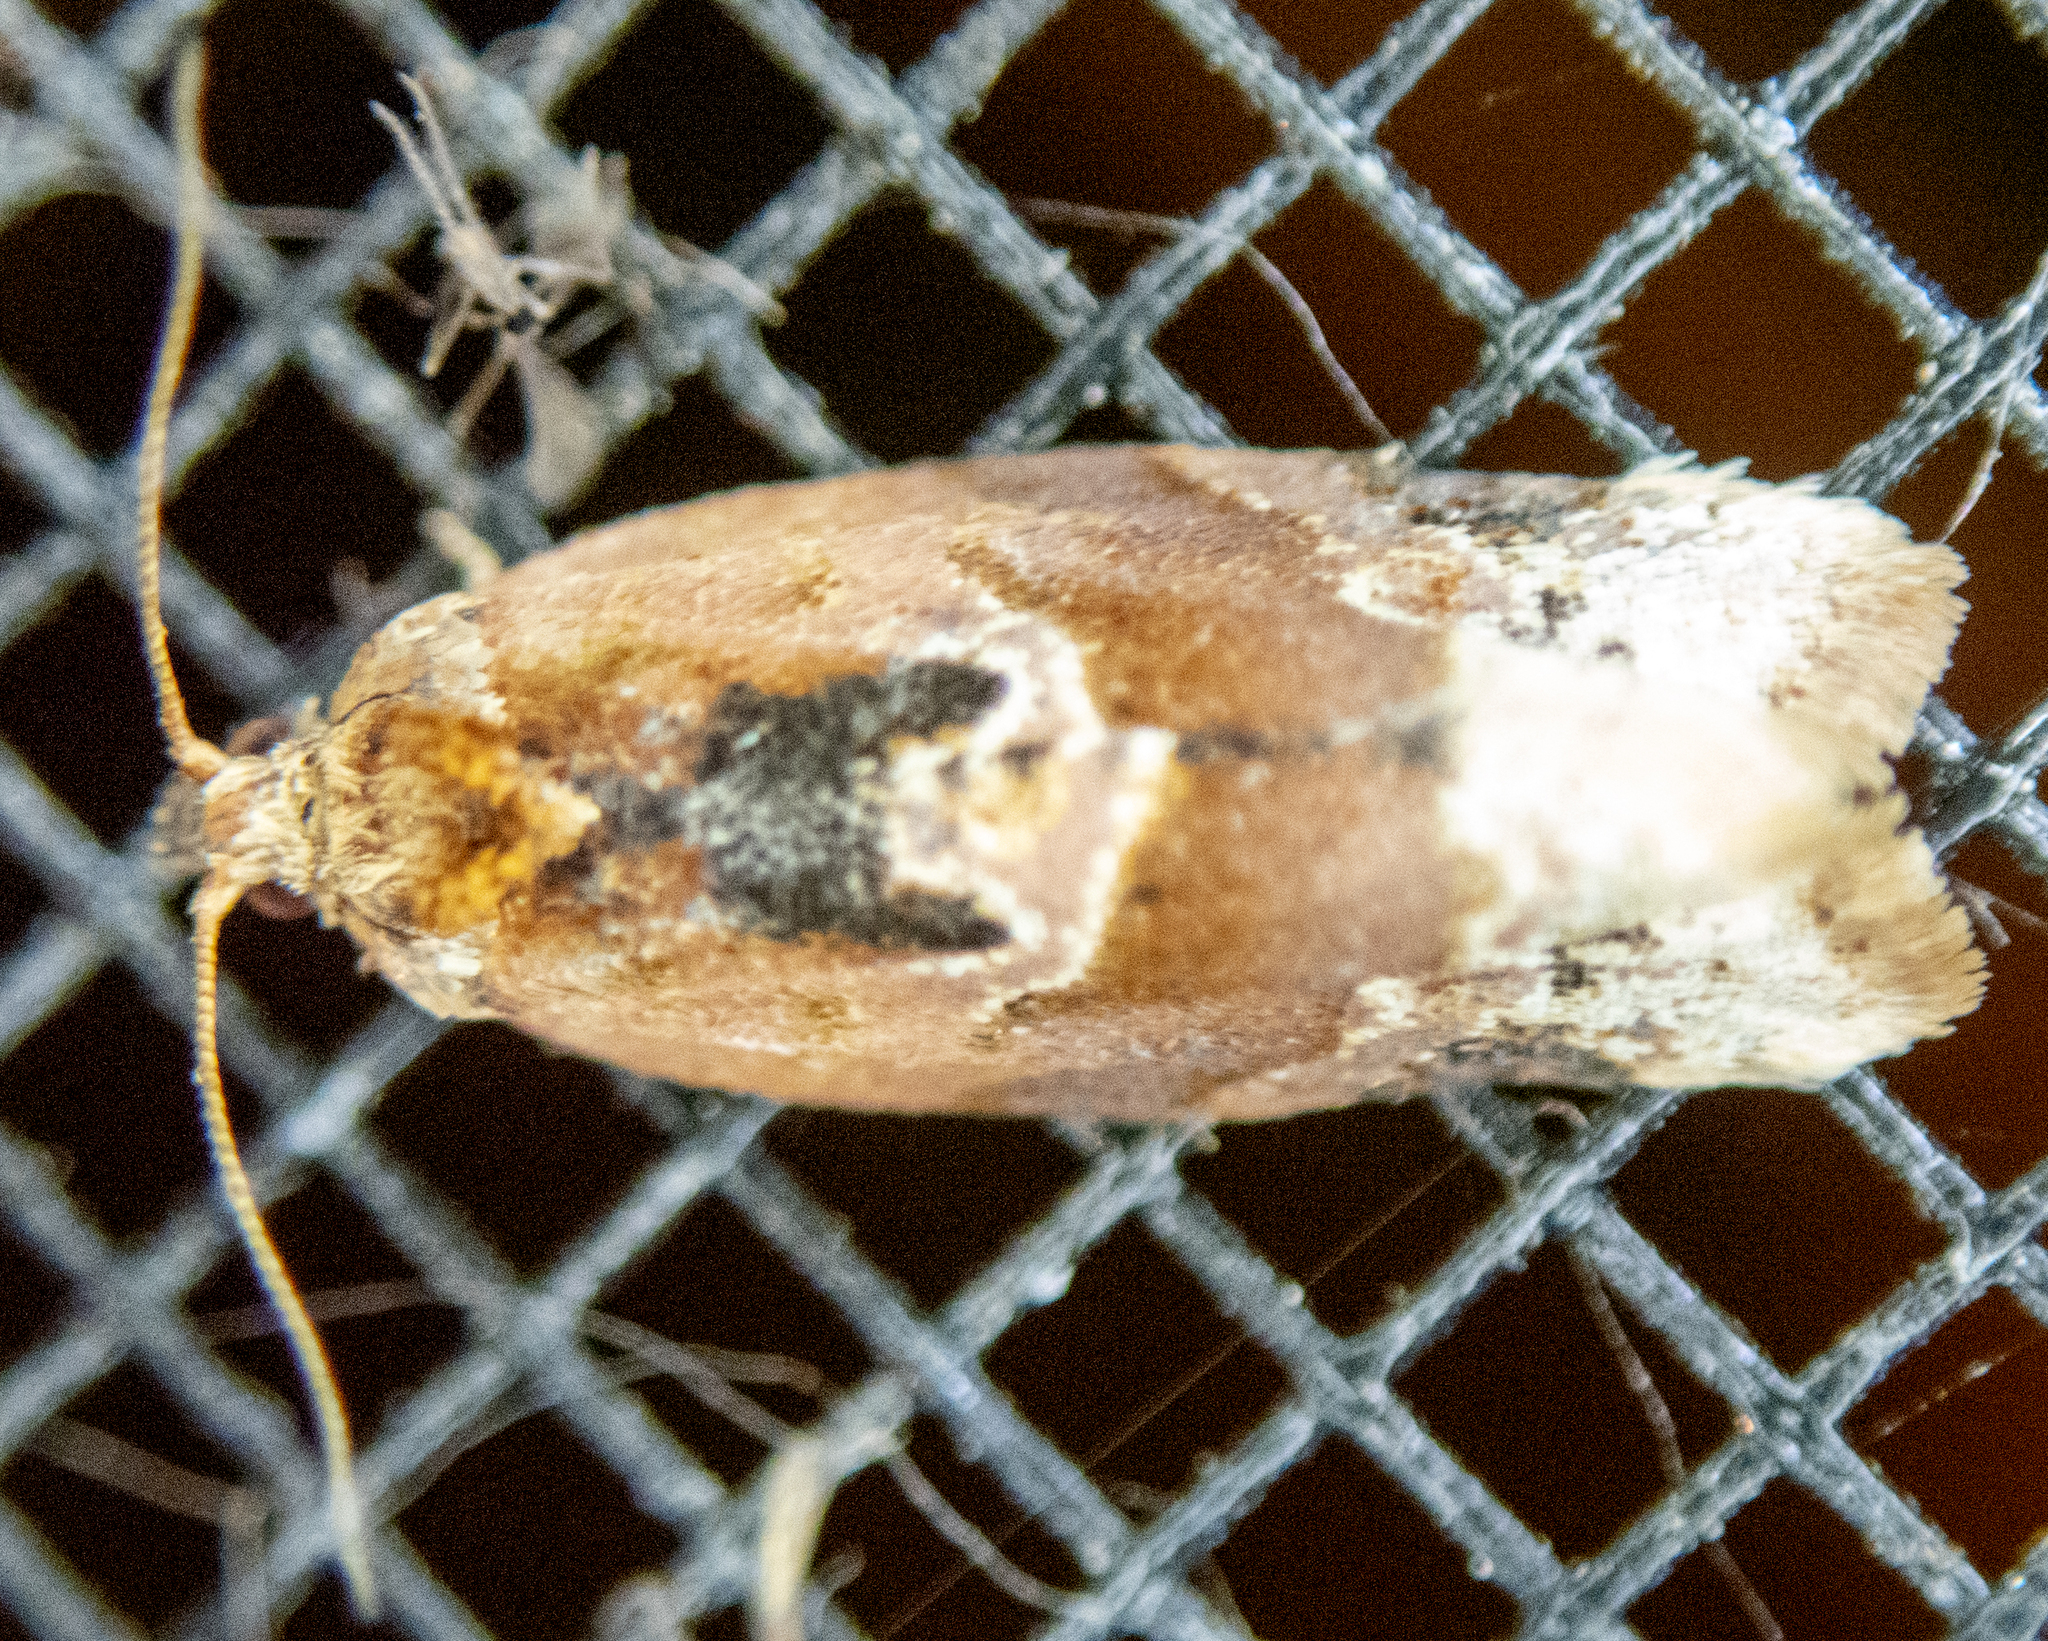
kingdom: Animalia
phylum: Arthropoda
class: Insecta
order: Lepidoptera
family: Tortricidae
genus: Argyrotaenia
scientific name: Argyrotaenia velutinana
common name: Red-banded leafroller moth
